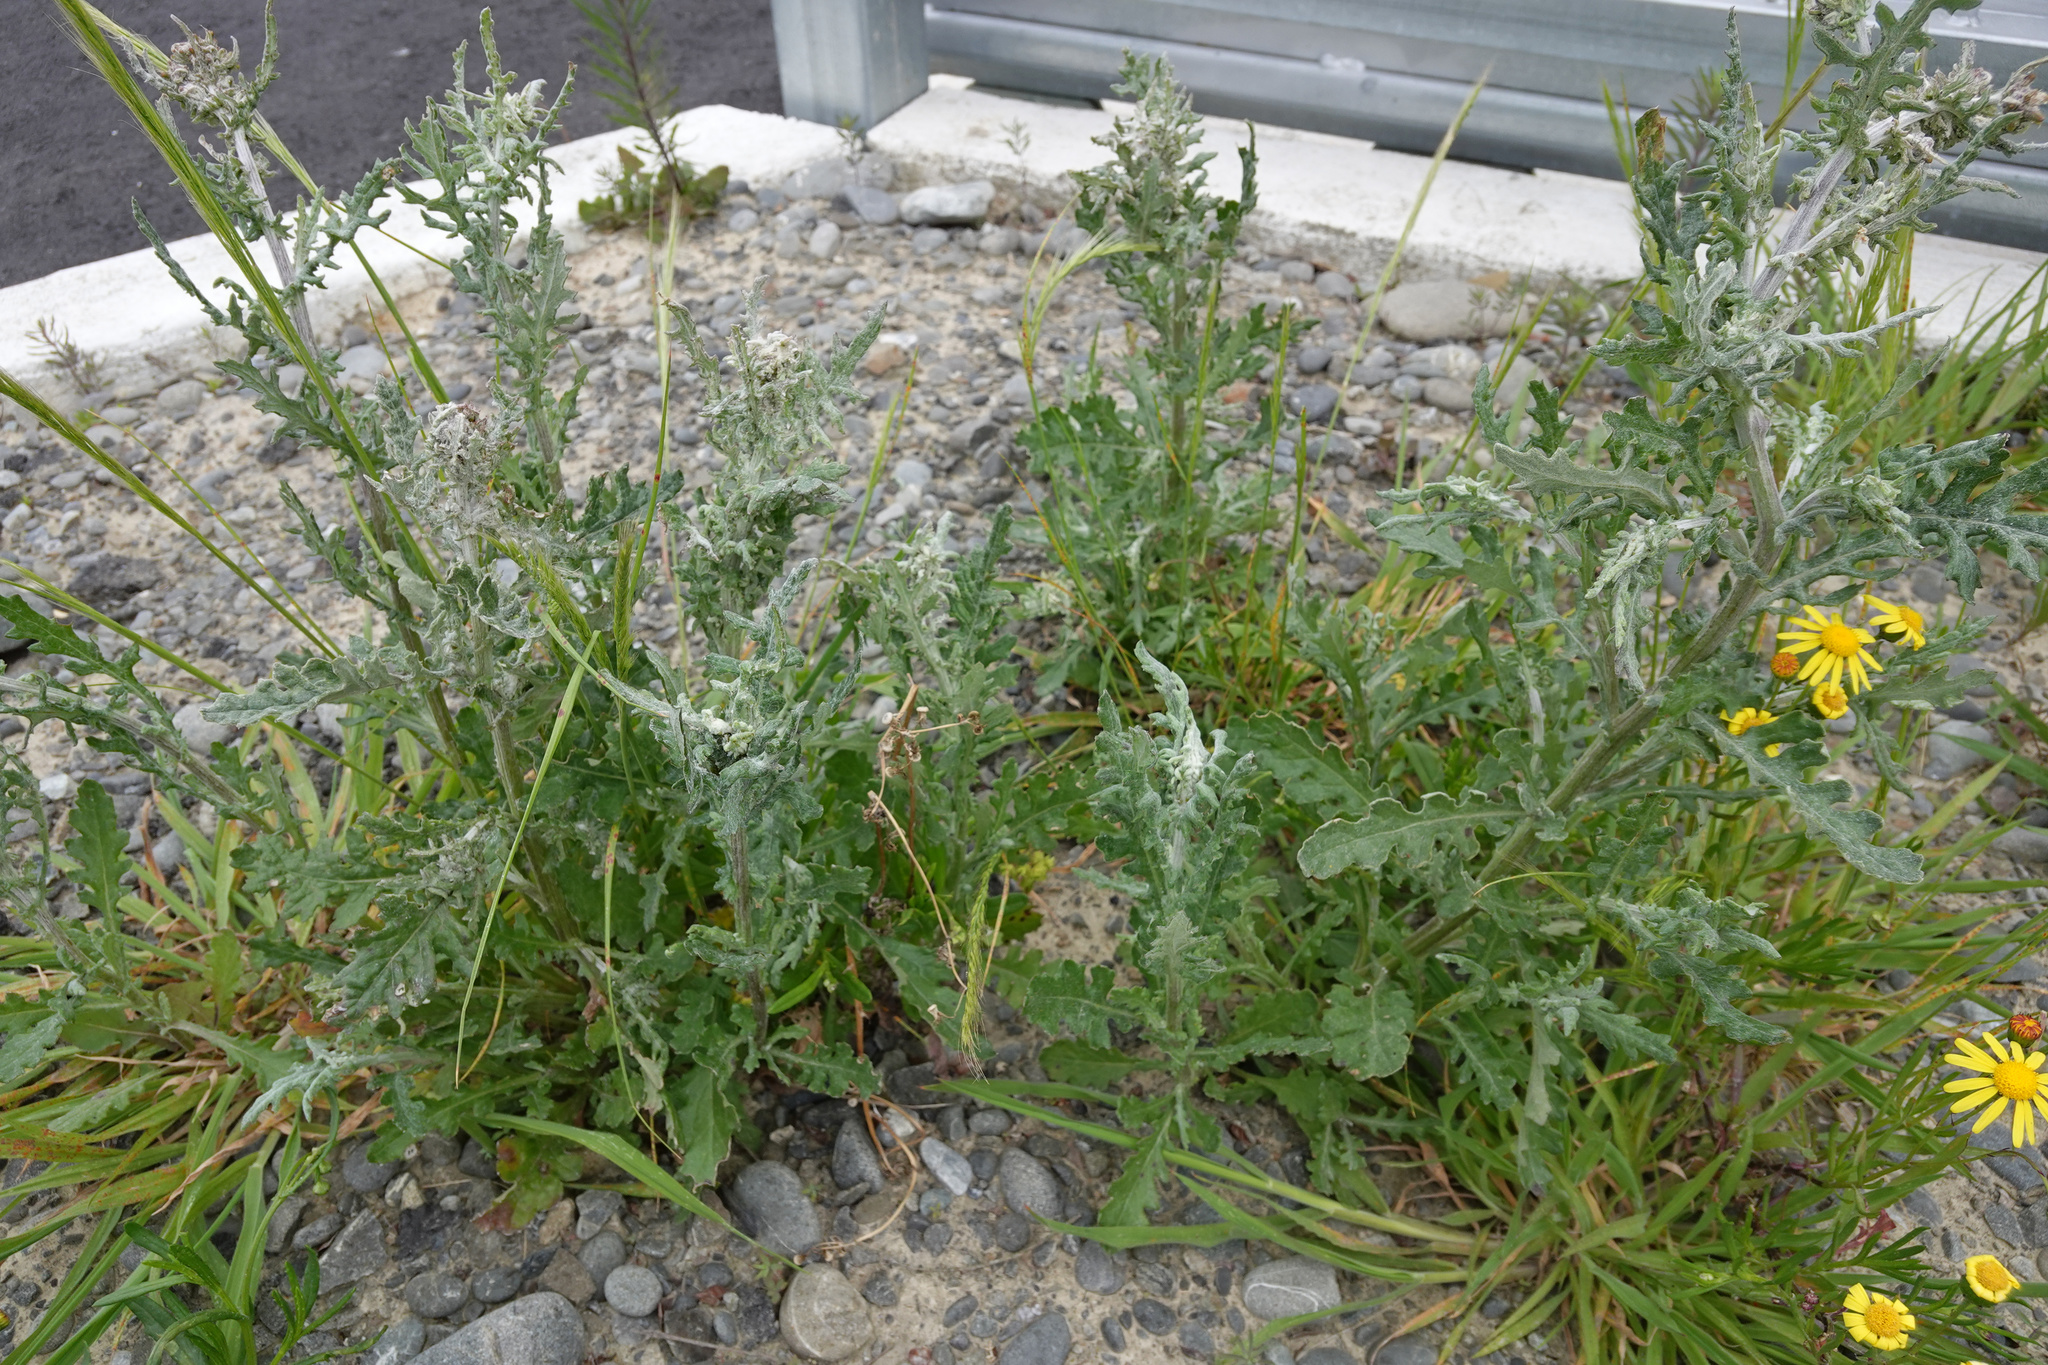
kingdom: Plantae
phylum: Tracheophyta
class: Magnoliopsida
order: Asterales
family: Asteraceae
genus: Senecio
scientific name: Senecio glomeratus
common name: Cutleaf burnweed
